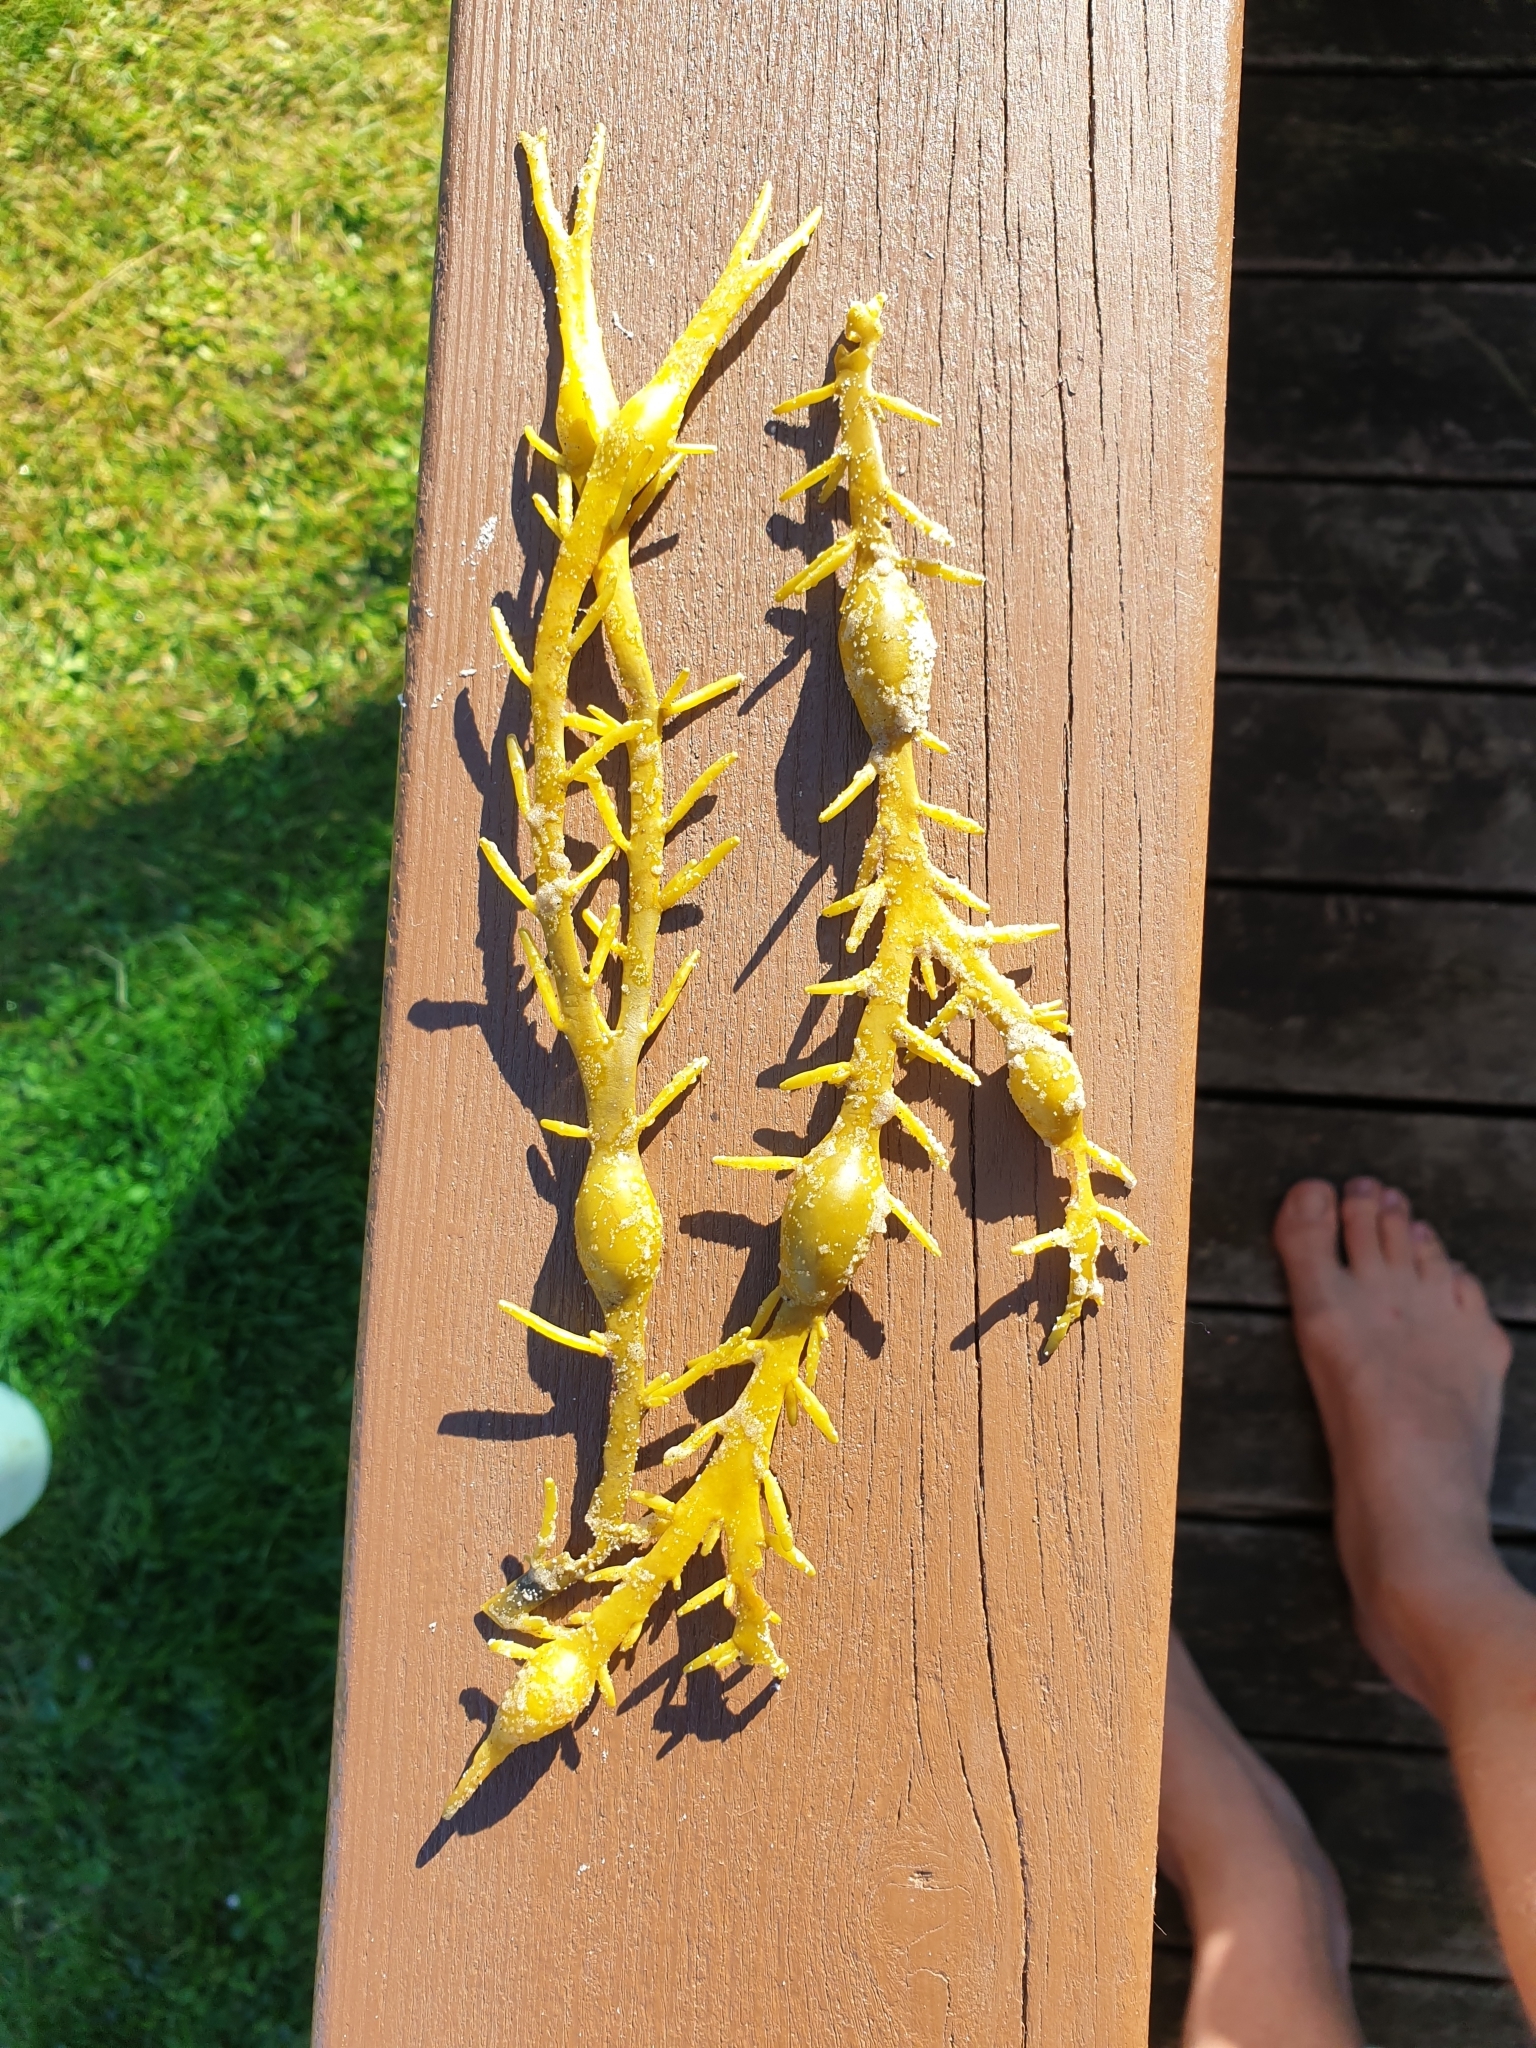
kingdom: Chromista
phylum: Ochrophyta
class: Phaeophyceae
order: Fucales
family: Fucaceae
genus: Ascophyllum
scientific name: Ascophyllum nodosum
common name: Knotted wrack
